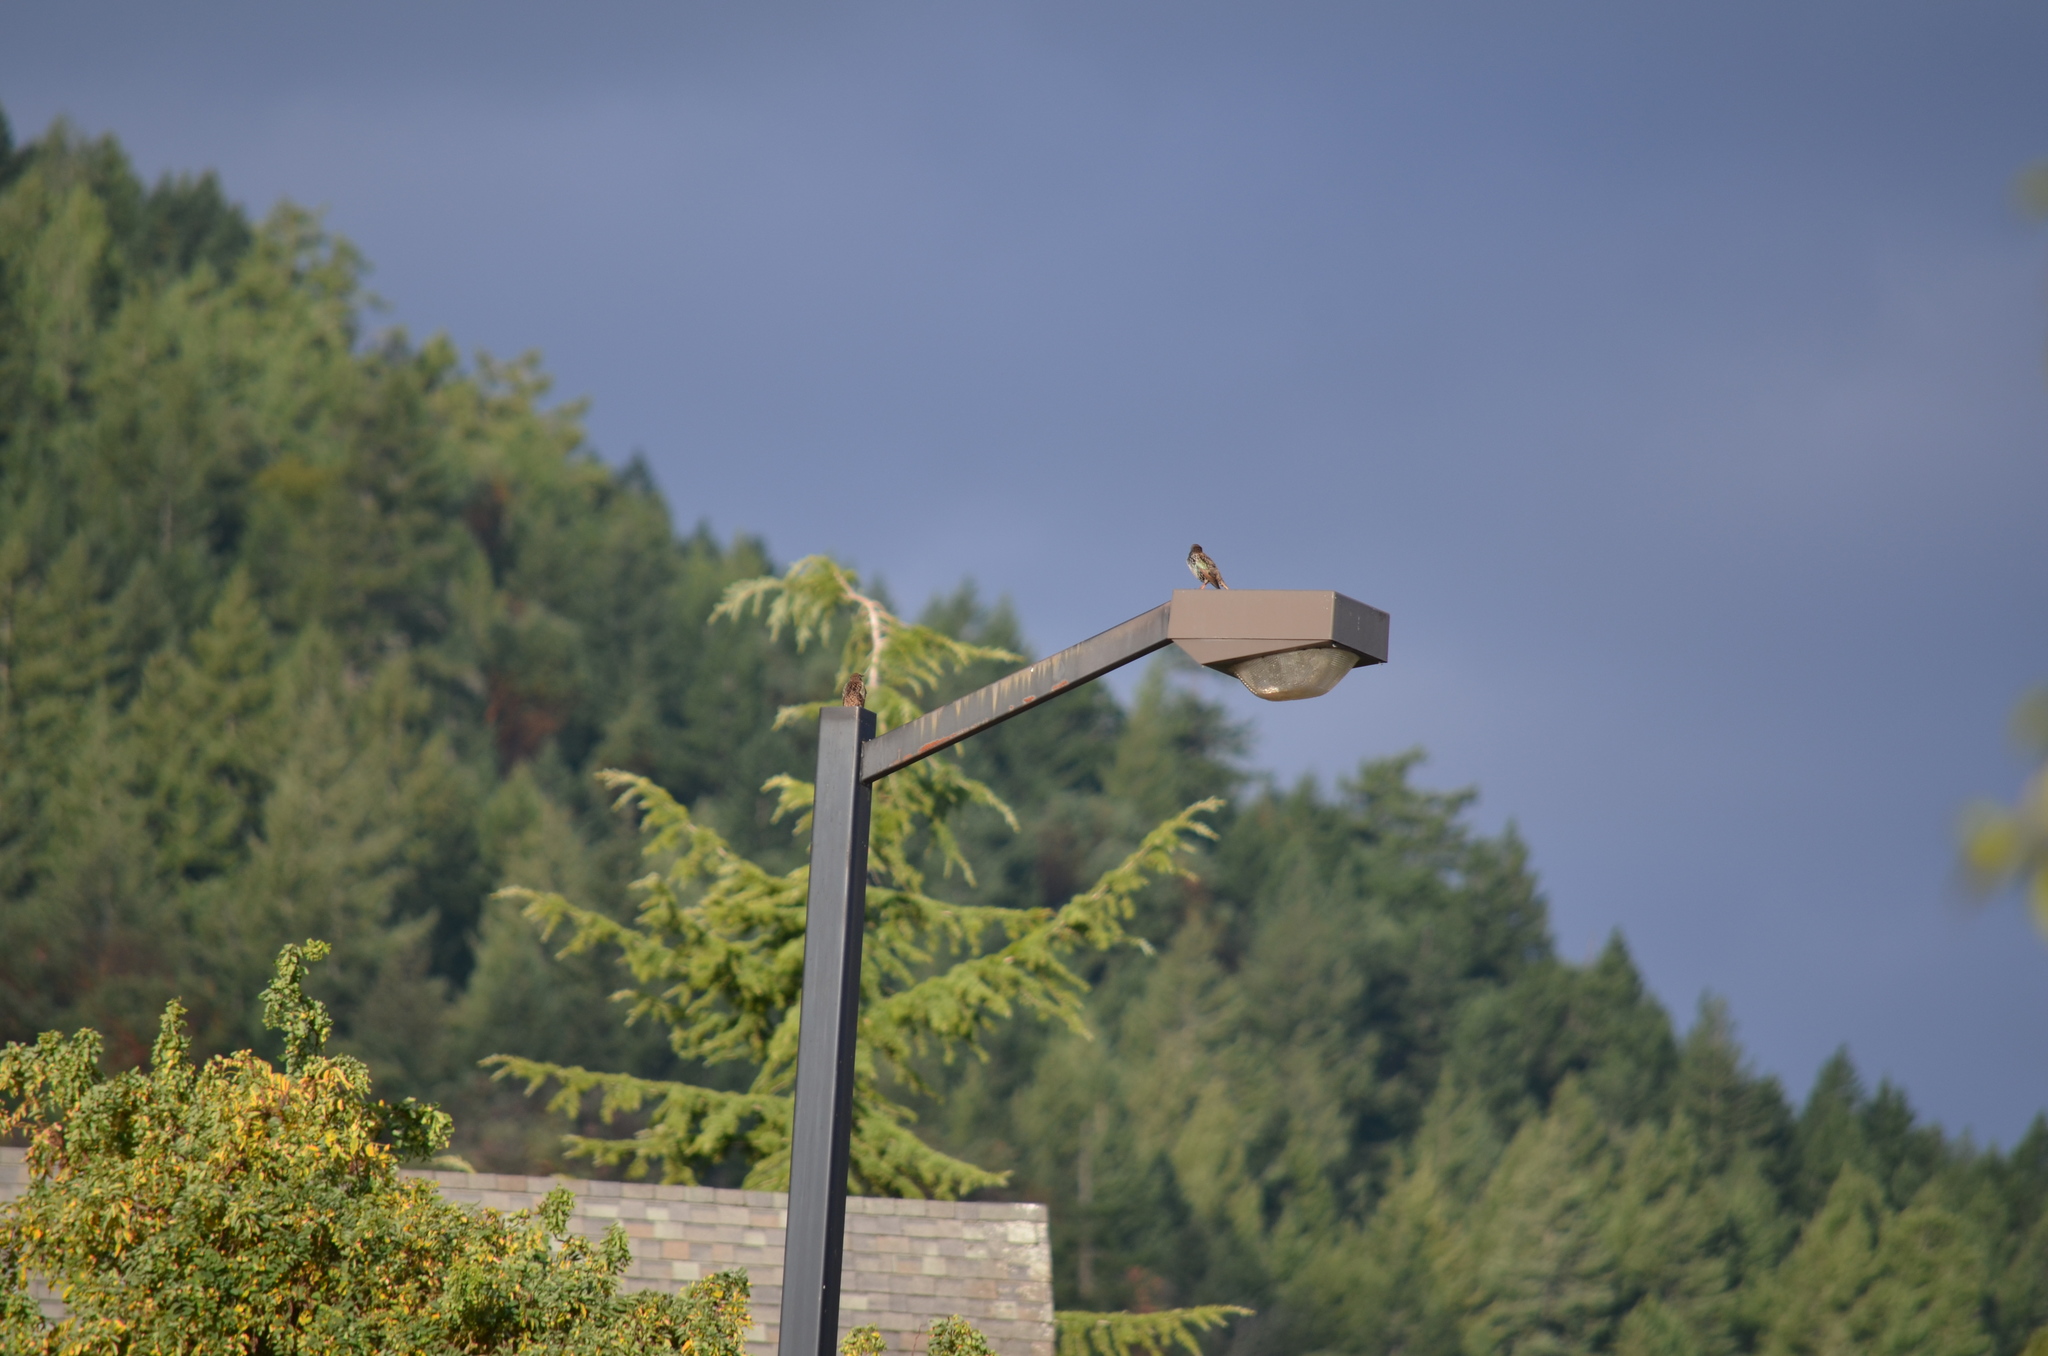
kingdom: Animalia
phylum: Chordata
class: Aves
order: Passeriformes
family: Sturnidae
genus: Sturnus
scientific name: Sturnus vulgaris
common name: Common starling
